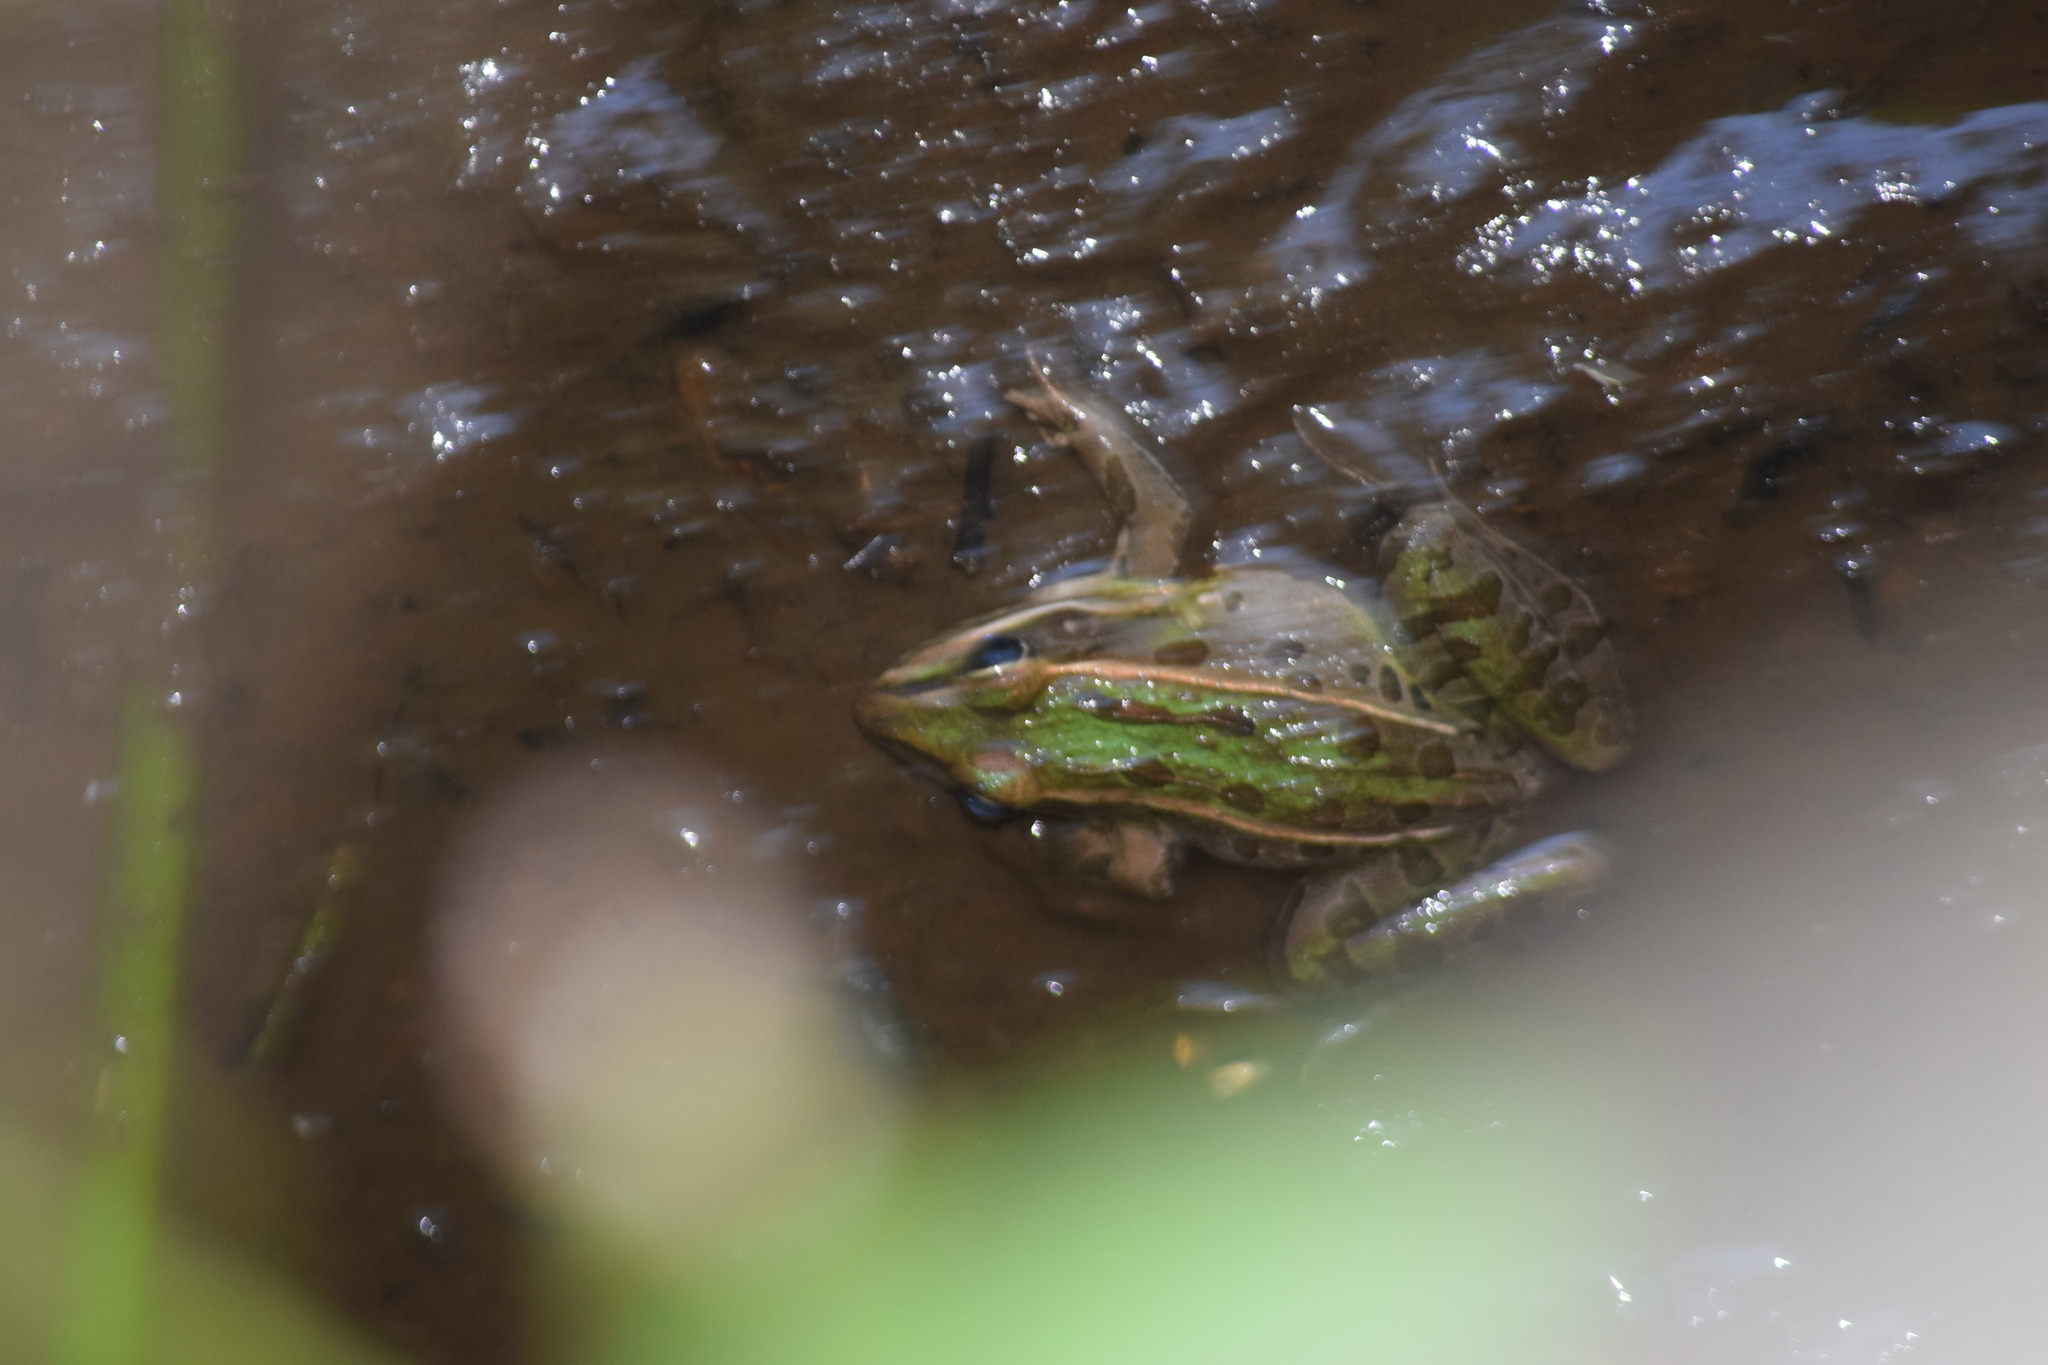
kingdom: Animalia
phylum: Chordata
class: Amphibia
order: Anura
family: Ranidae
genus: Lithobates
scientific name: Lithobates sphenocephalus
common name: Southern leopard frog
